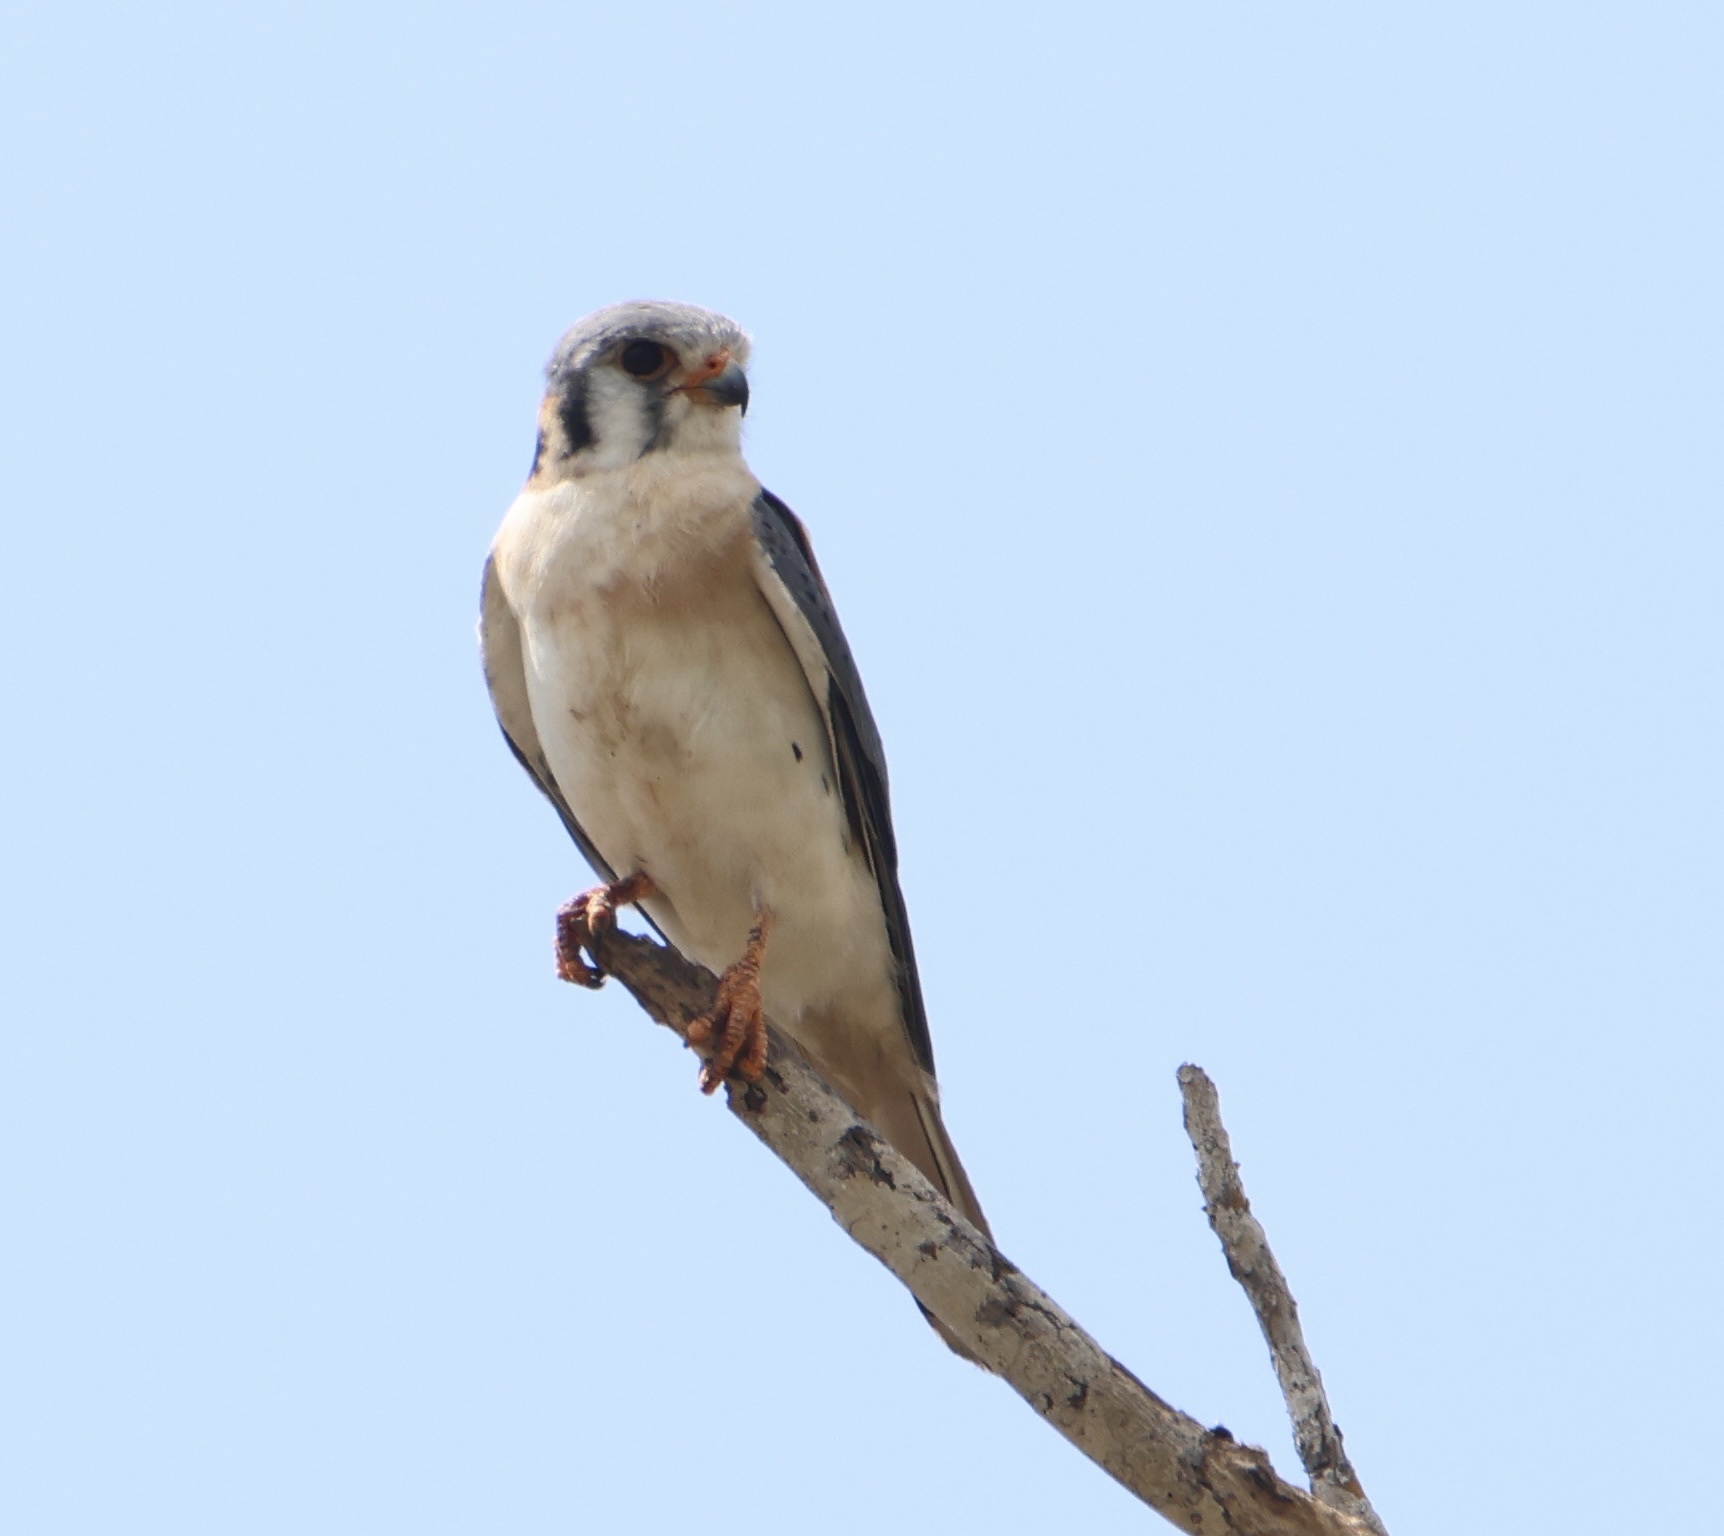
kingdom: Animalia
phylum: Chordata
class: Aves
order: Falconiformes
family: Falconidae
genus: Falco
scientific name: Falco sparverius
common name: American kestrel
